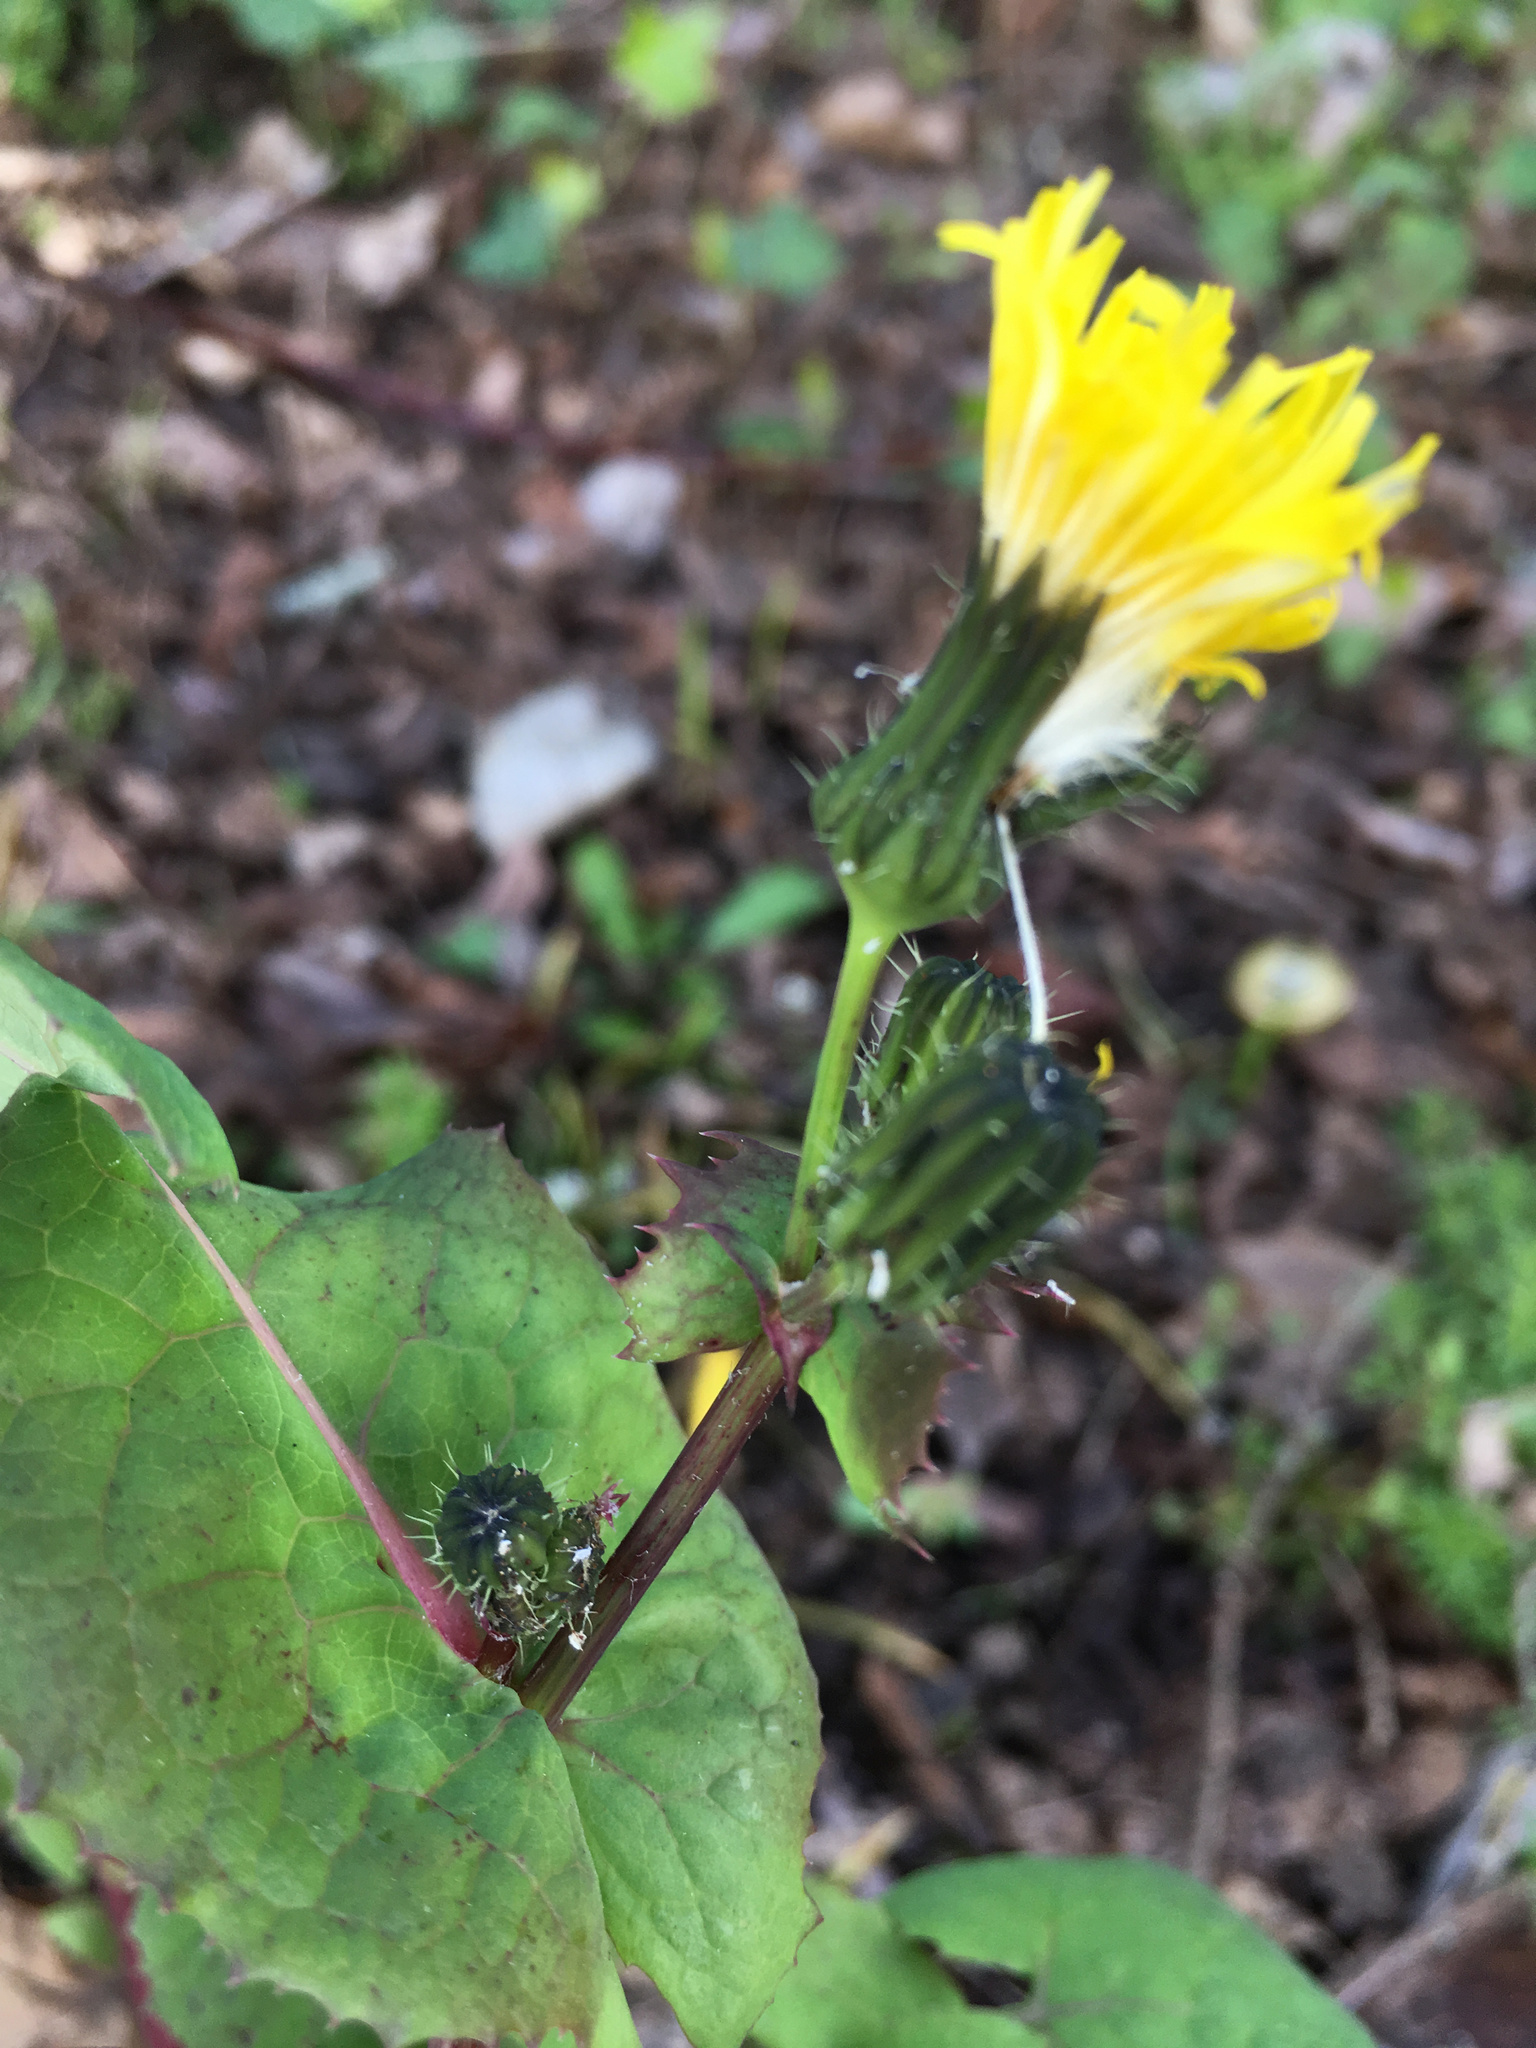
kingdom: Plantae
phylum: Tracheophyta
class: Magnoliopsida
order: Asterales
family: Asteraceae
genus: Sonchus
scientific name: Sonchus oleraceus
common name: Common sowthistle
